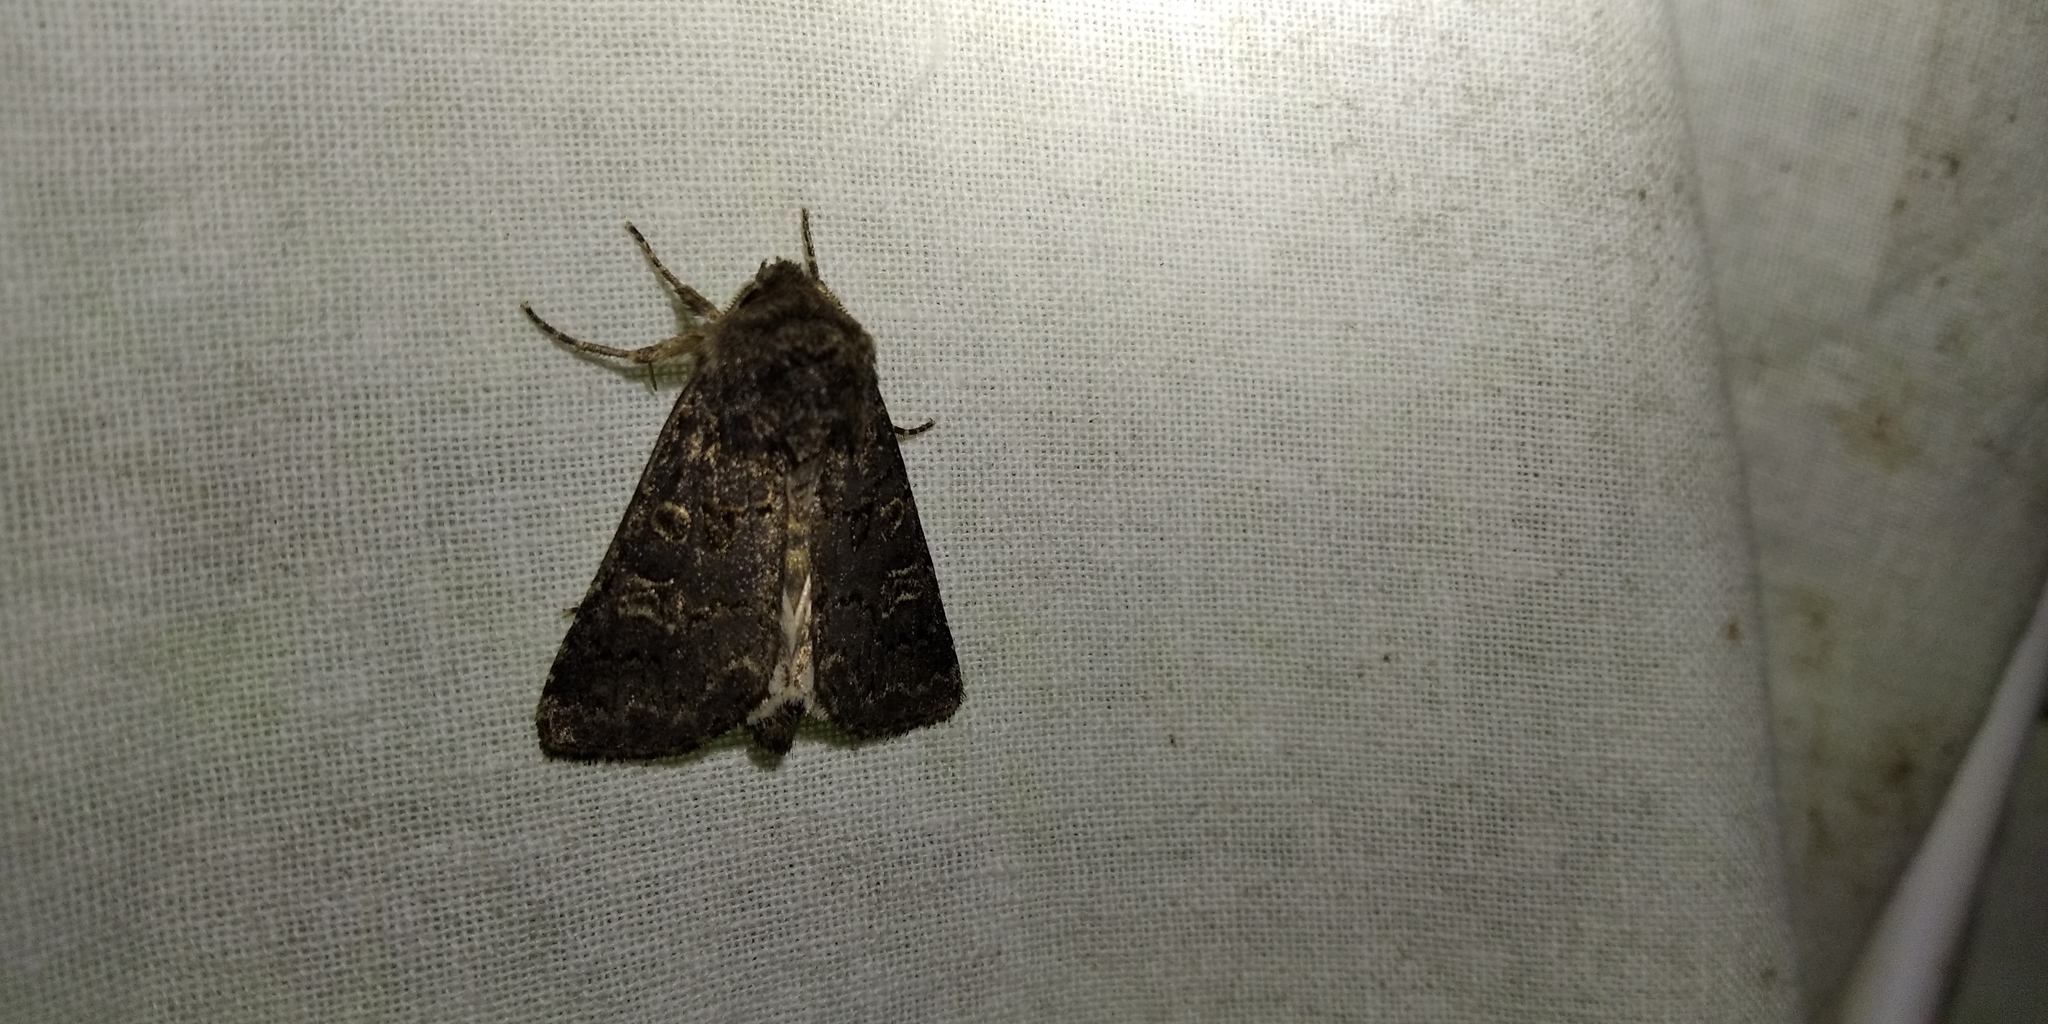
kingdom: Animalia
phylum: Arthropoda
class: Insecta
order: Lepidoptera
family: Noctuidae
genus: Tholera
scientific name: Tholera cespitis
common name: Hedge rustic
